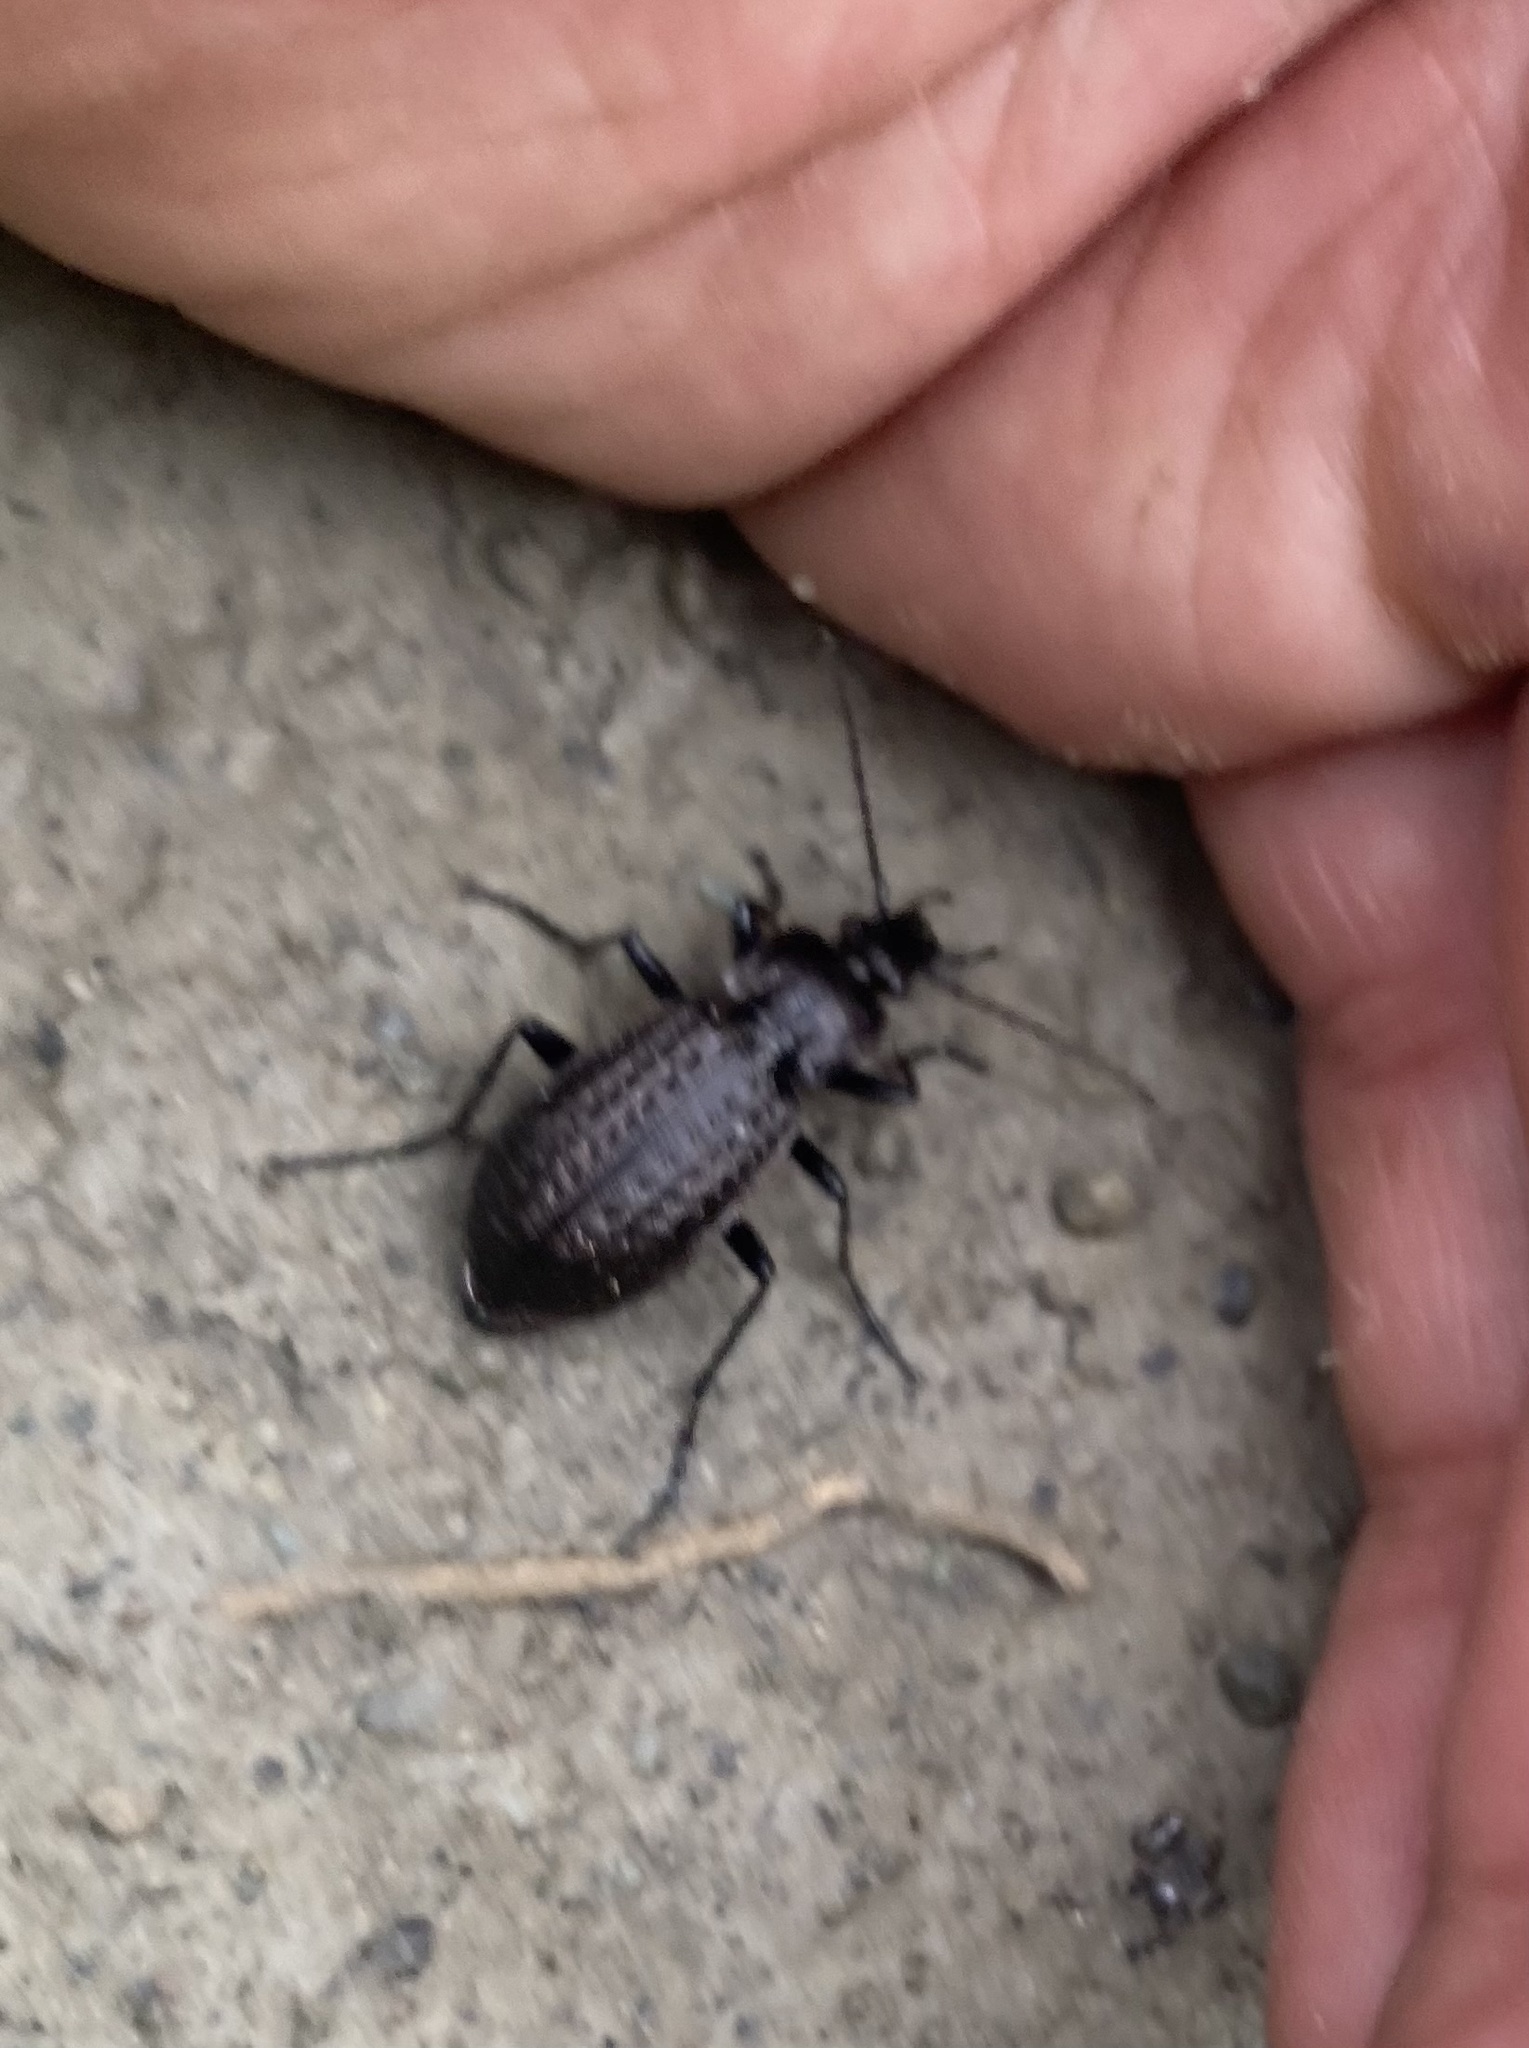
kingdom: Animalia
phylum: Arthropoda
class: Insecta
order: Coleoptera
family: Carabidae
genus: Carabus
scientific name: Carabus granulatus
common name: Granulate ground beetle
